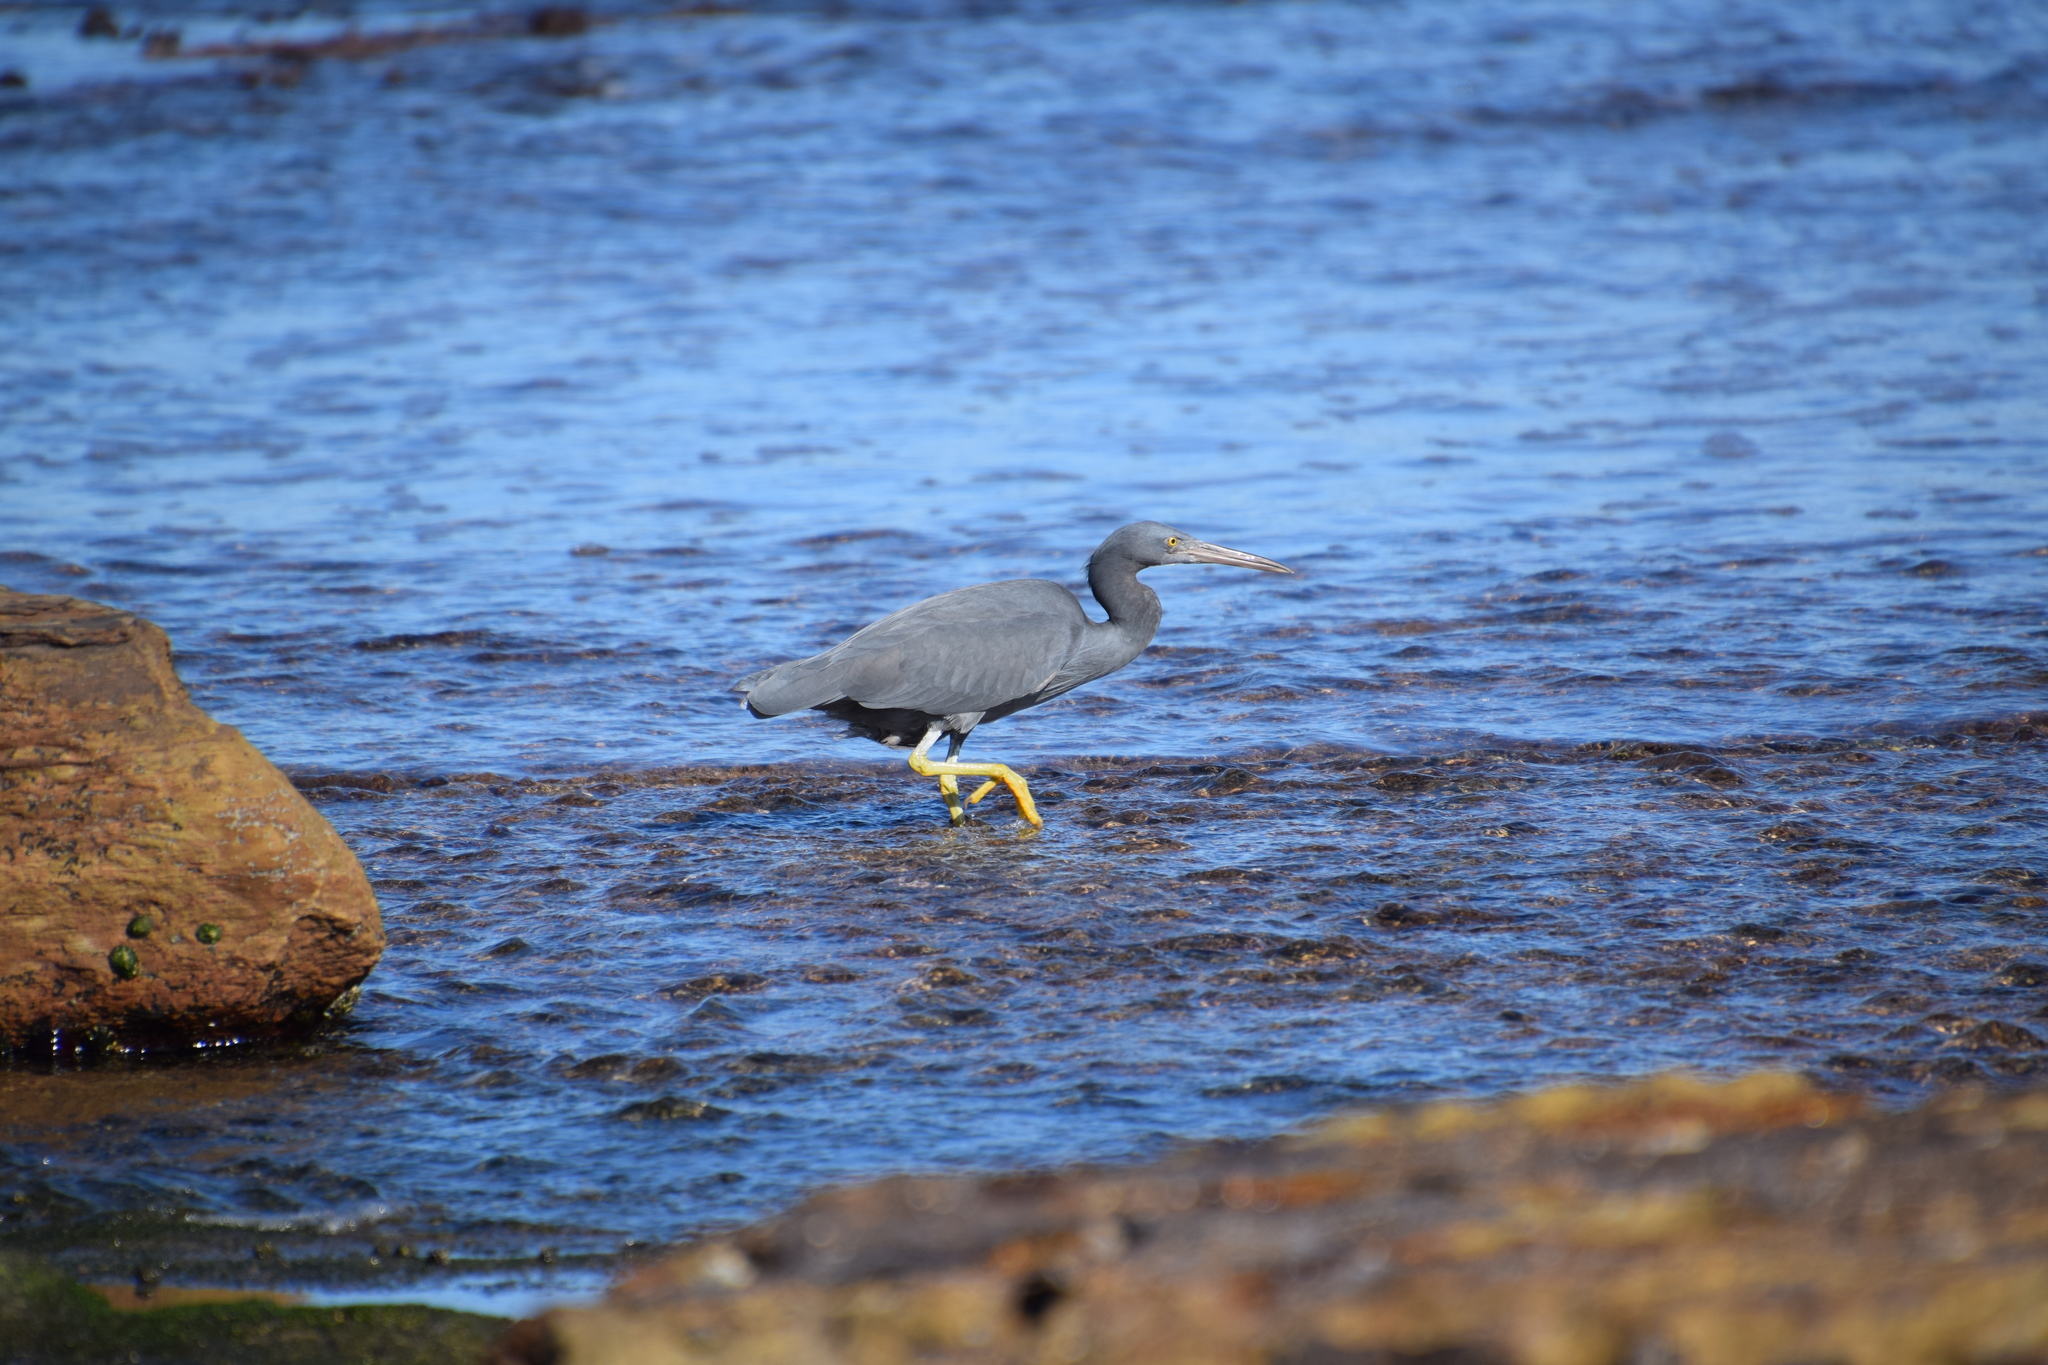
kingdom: Animalia
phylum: Chordata
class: Aves
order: Pelecaniformes
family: Ardeidae
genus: Egretta
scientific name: Egretta sacra
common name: Pacific reef heron
